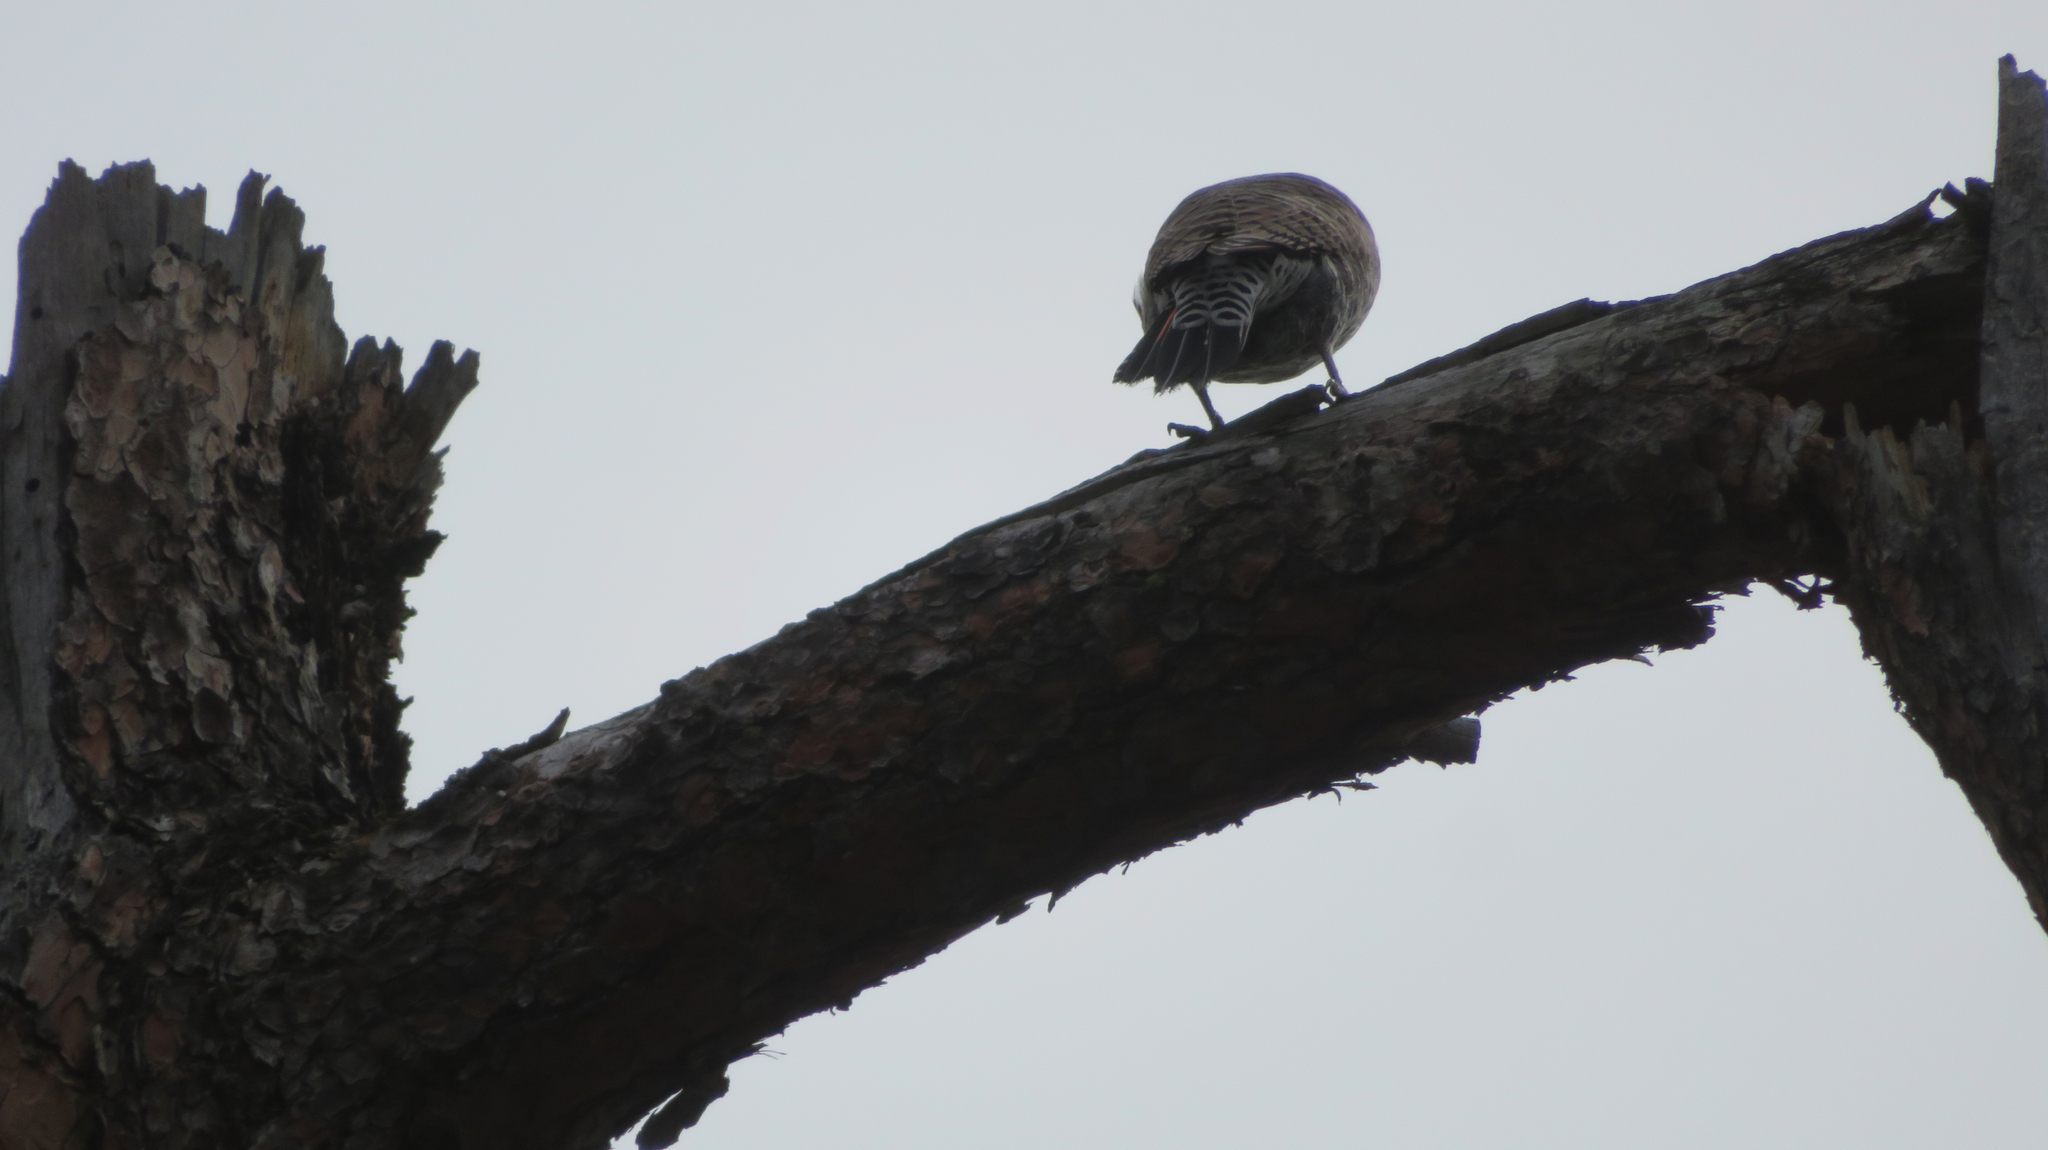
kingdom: Animalia
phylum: Chordata
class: Aves
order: Piciformes
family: Picidae
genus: Colaptes
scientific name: Colaptes auratus
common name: Northern flicker
